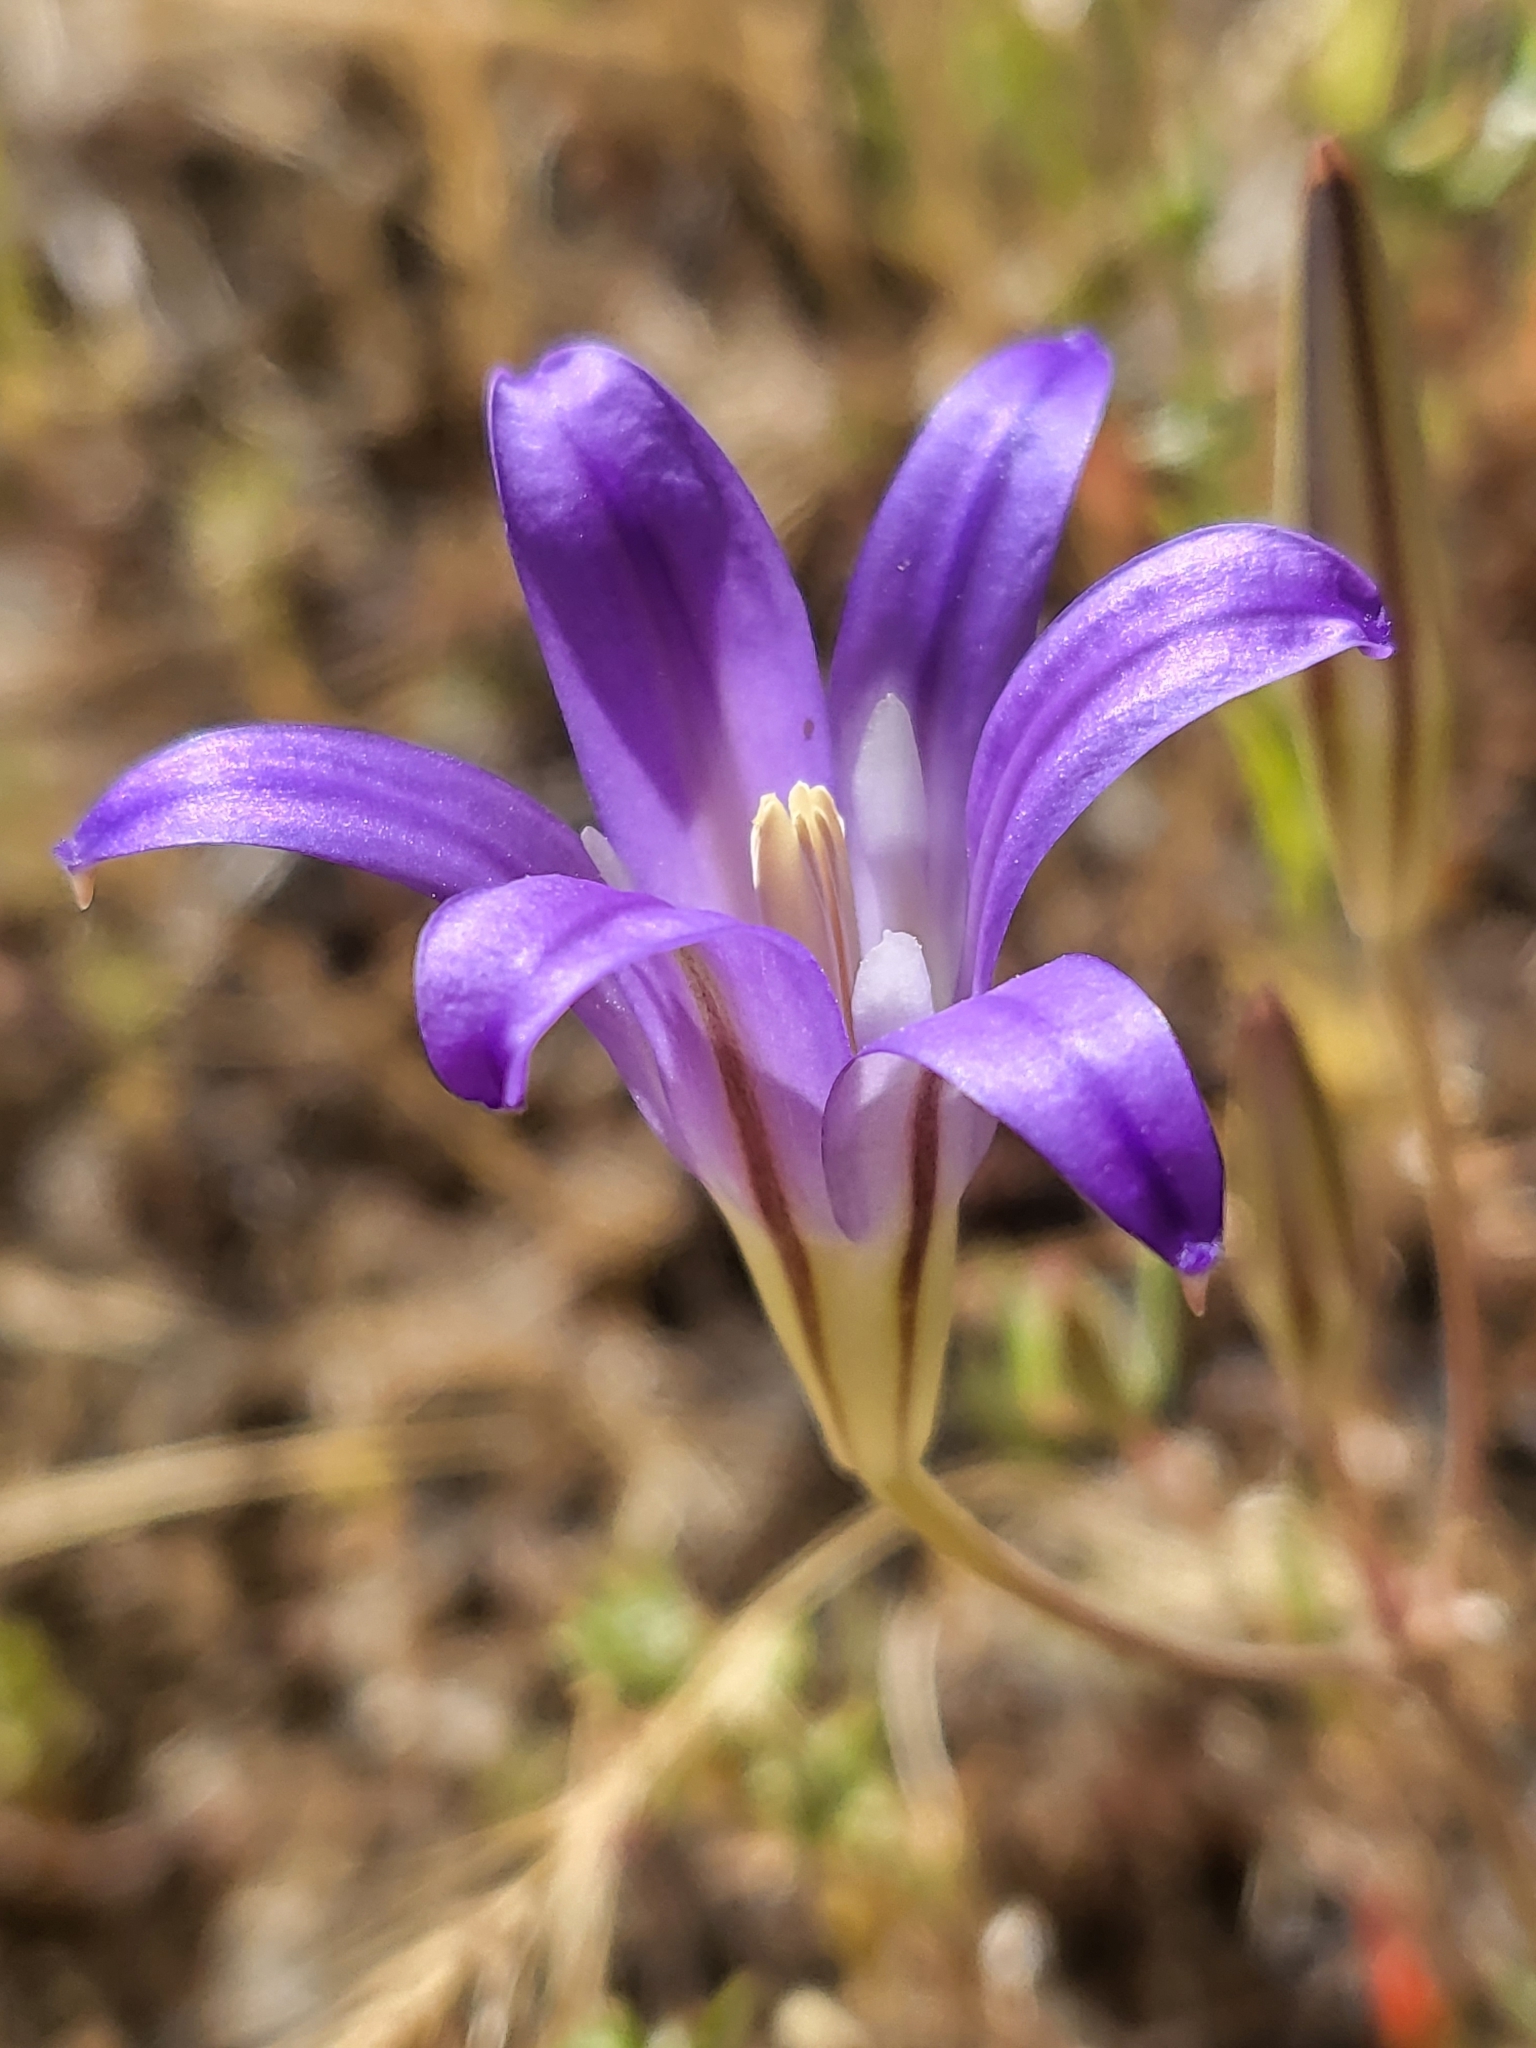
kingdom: Plantae
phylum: Tracheophyta
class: Liliopsida
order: Asparagales
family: Asparagaceae
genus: Brodiaea
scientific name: Brodiaea elegans
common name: Elegant cluster-lily
